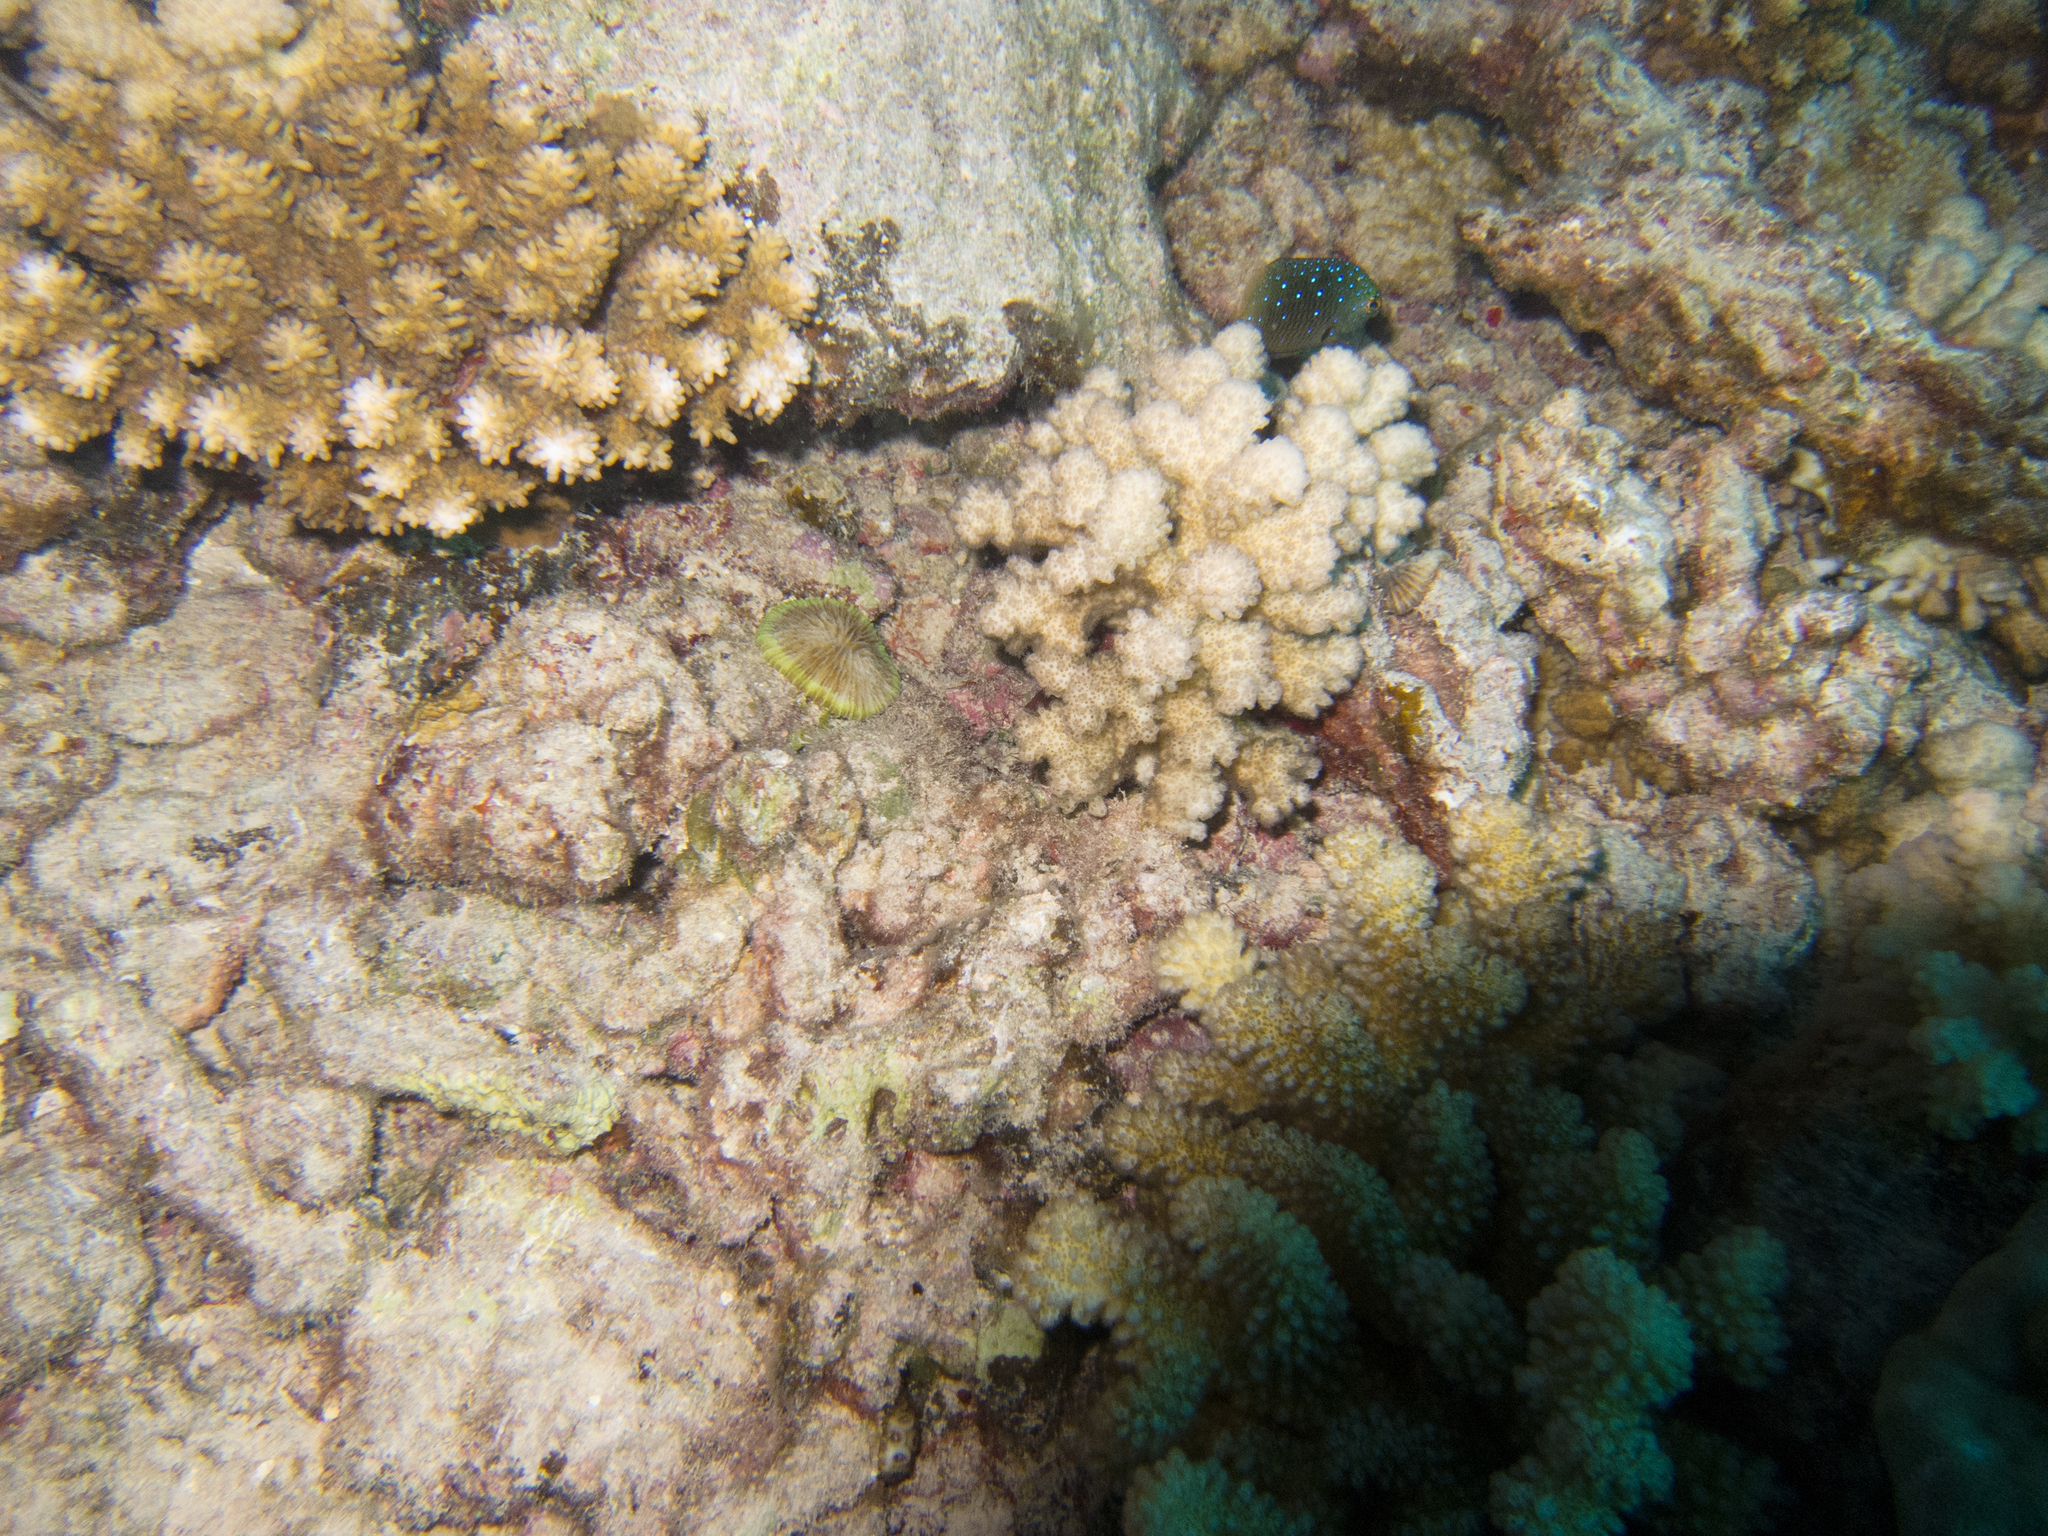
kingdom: Animalia
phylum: Chordata
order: Perciformes
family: Pomacentridae
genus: Plectroglyphidodon
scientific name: Plectroglyphidodon lacrymatus
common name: Jewel damsel
